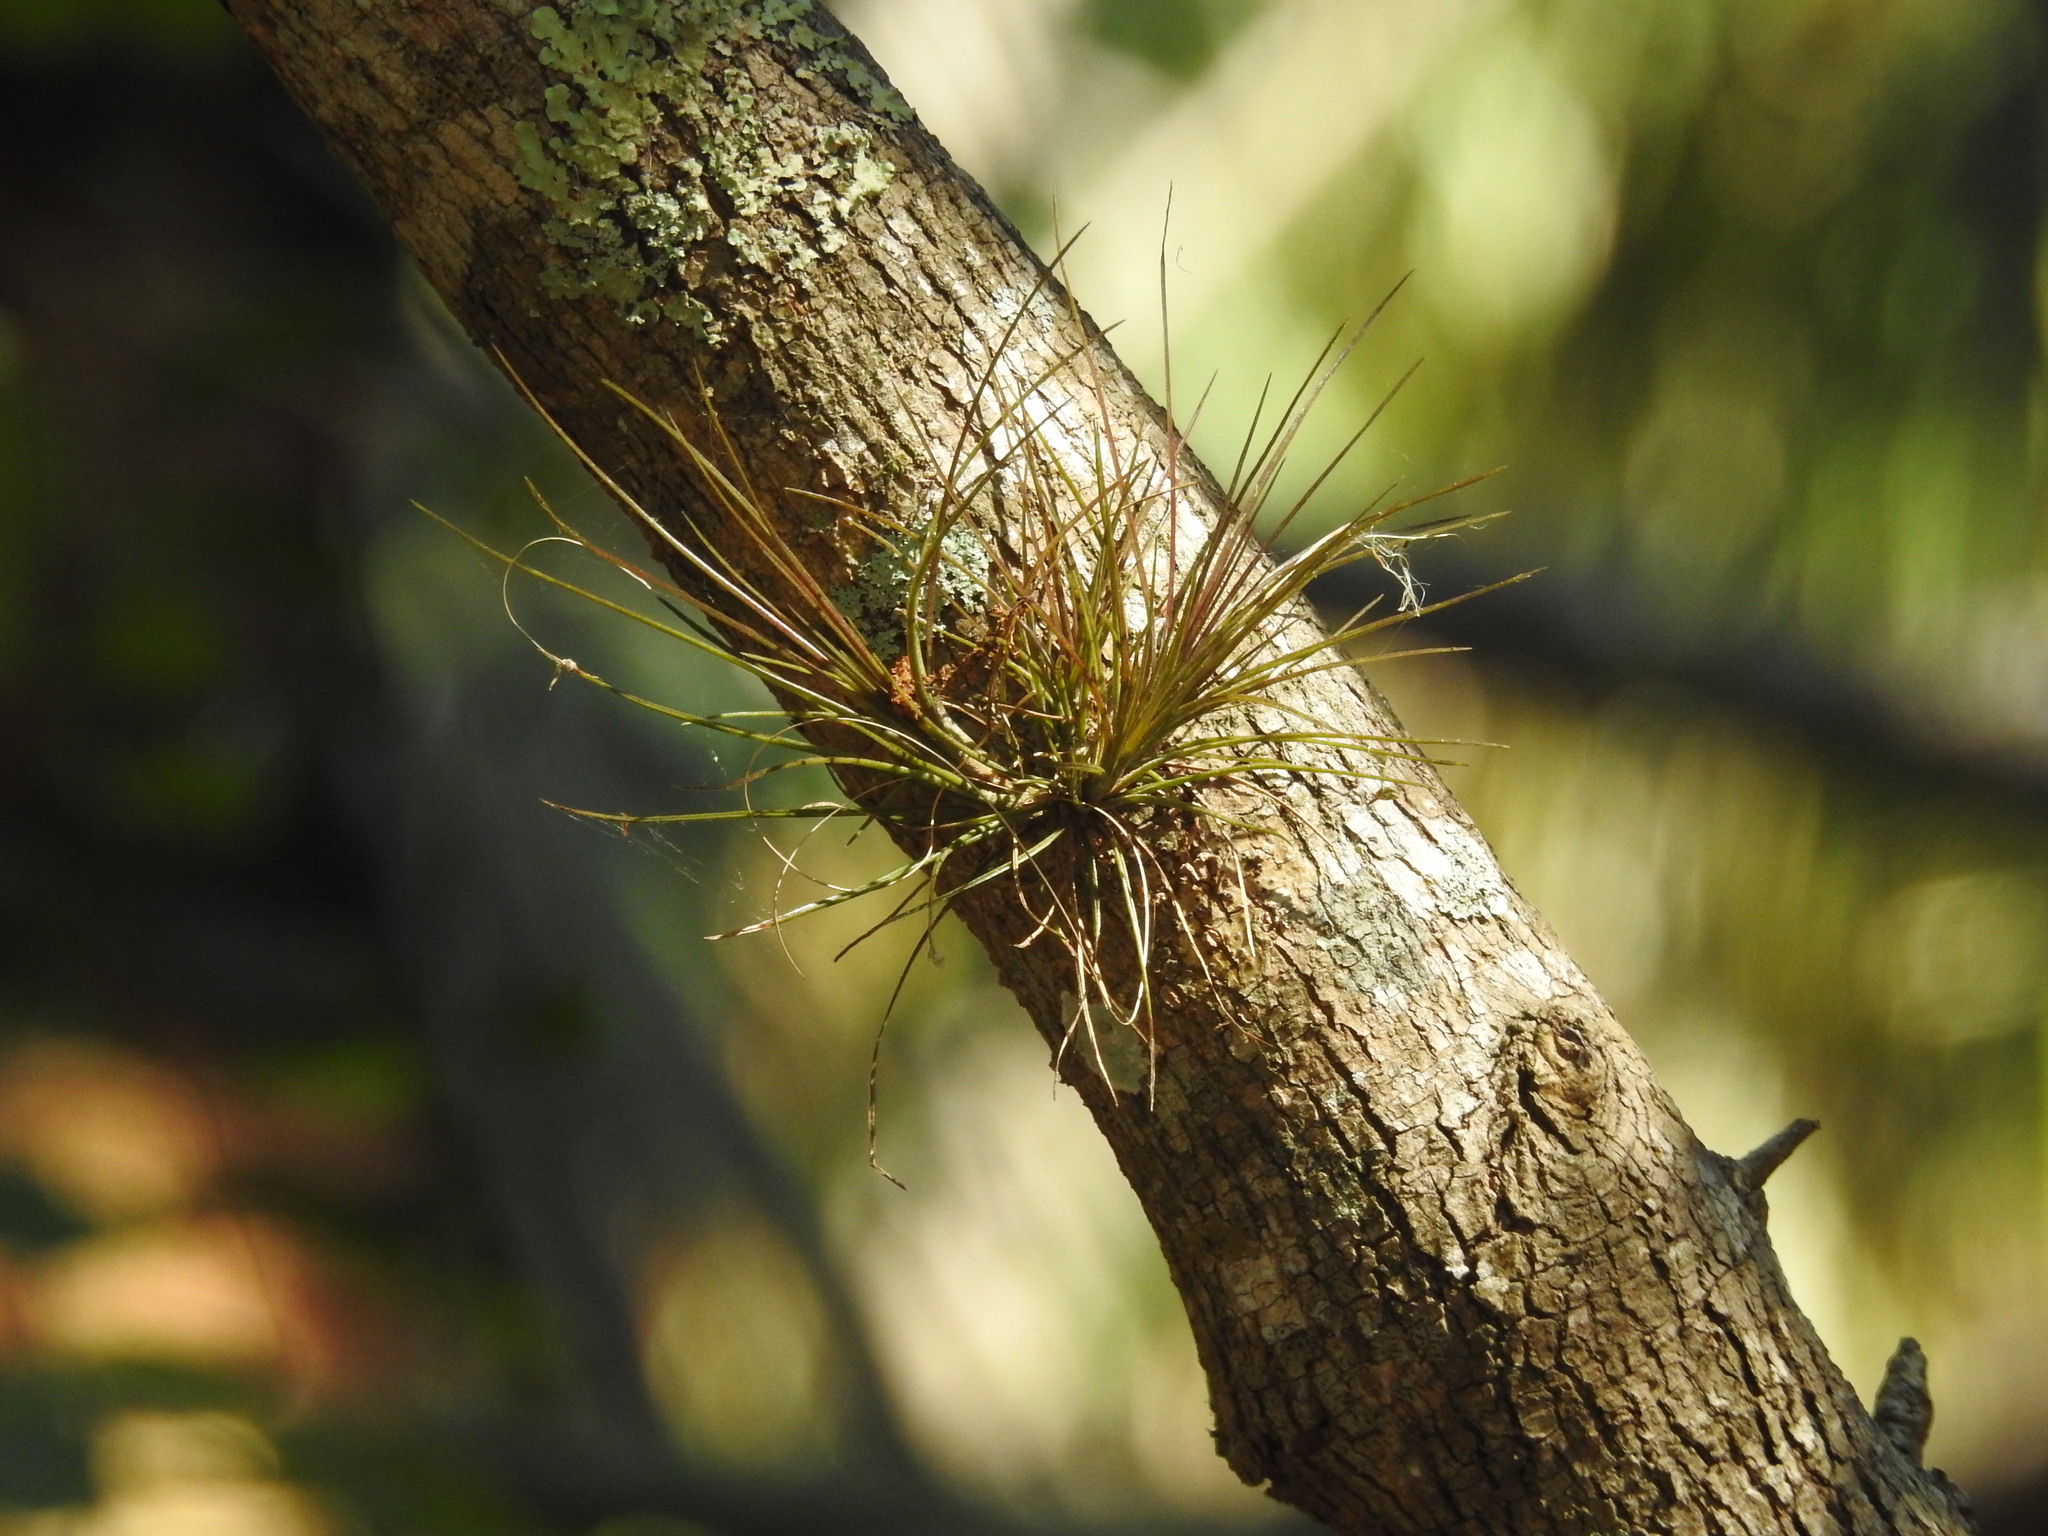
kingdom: Plantae
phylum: Tracheophyta
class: Liliopsida
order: Poales
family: Bromeliaceae
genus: Tillandsia
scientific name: Tillandsia setacea
